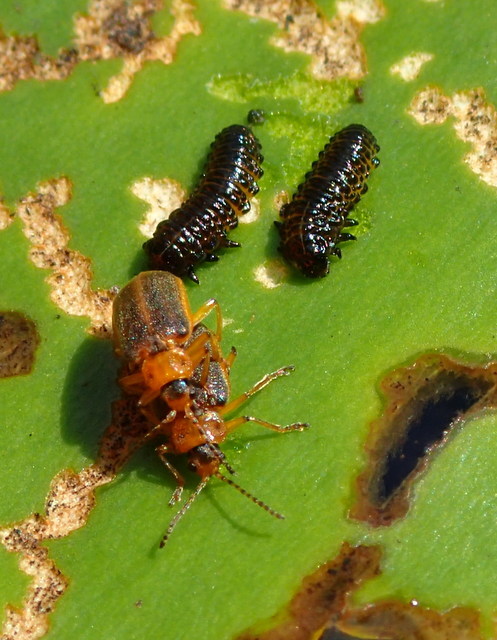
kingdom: Animalia
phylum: Arthropoda
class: Insecta
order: Coleoptera
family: Chrysomelidae
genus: Galerucella
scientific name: Galerucella nymphaeae
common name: Leaf beetle
